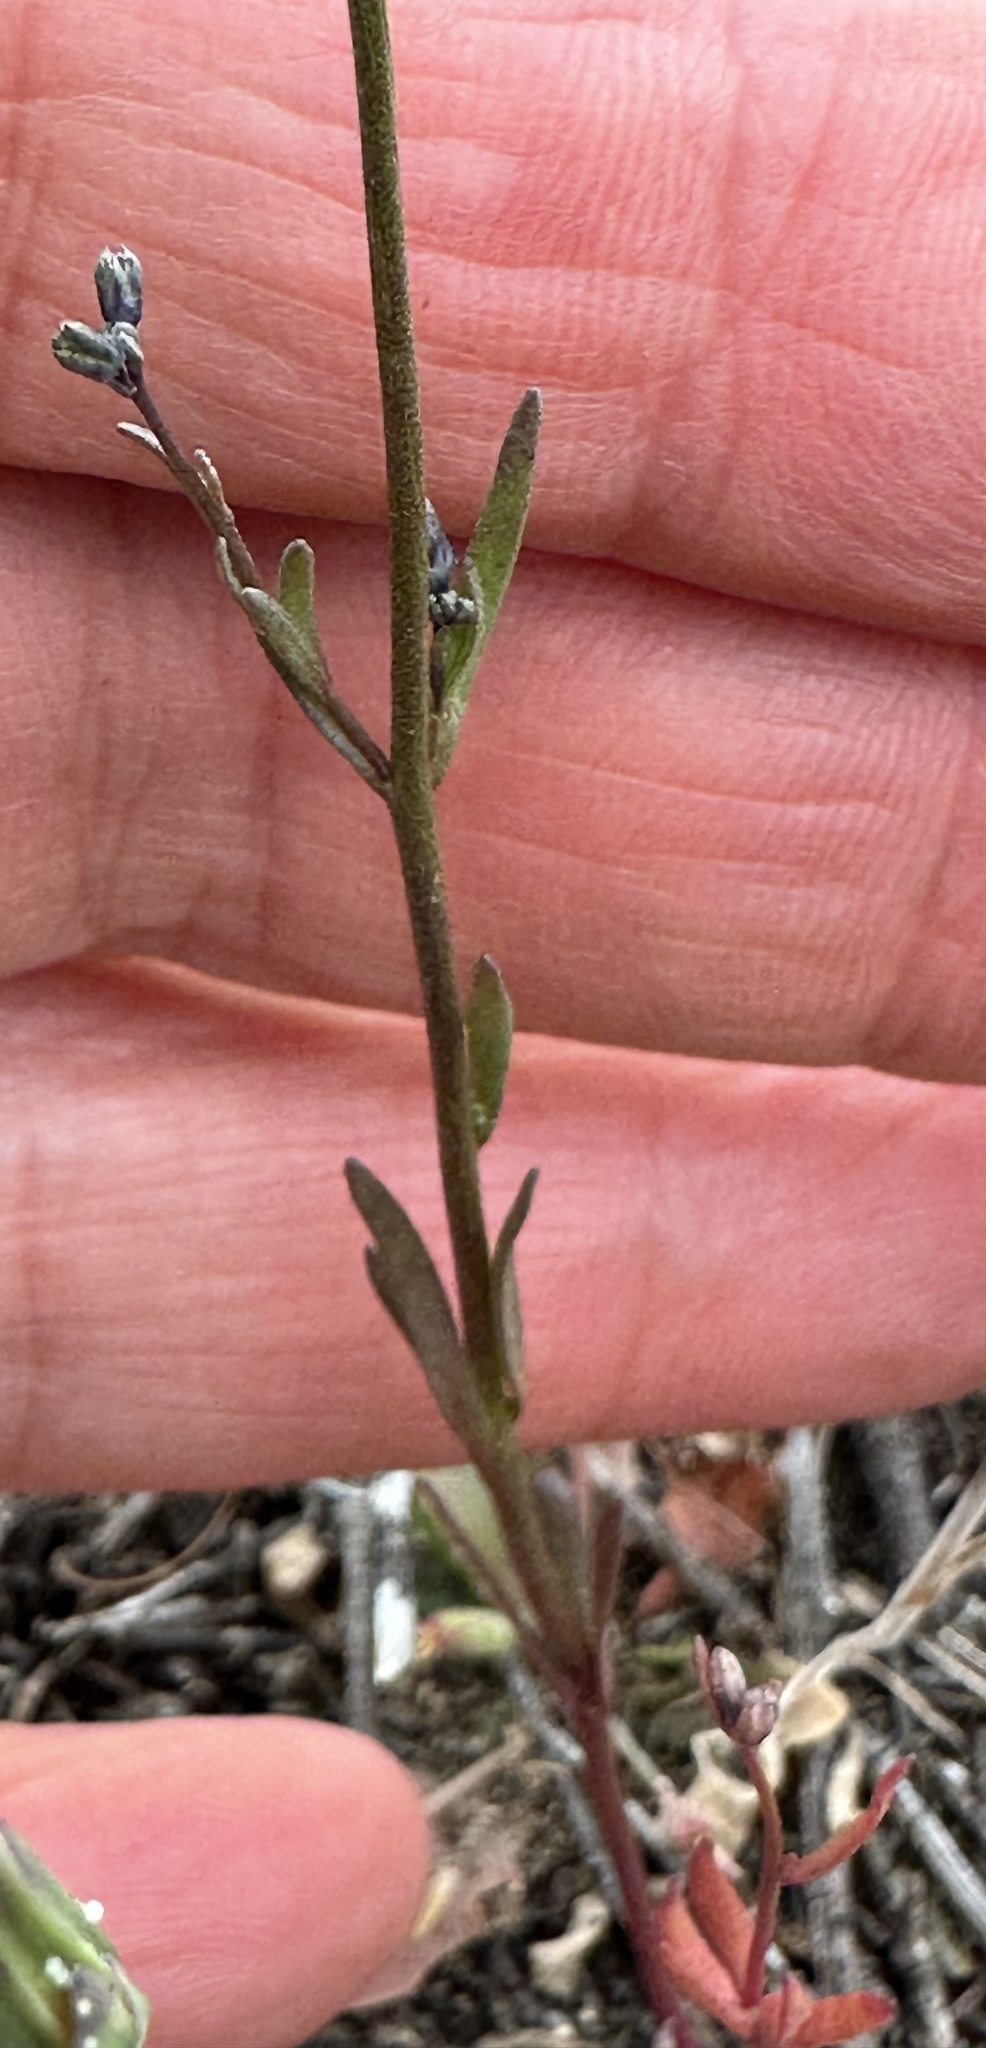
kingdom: Plantae
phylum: Tracheophyta
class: Magnoliopsida
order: Lamiales
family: Plantaginaceae
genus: Nuttallanthus
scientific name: Nuttallanthus texanus
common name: Texas toadflax
